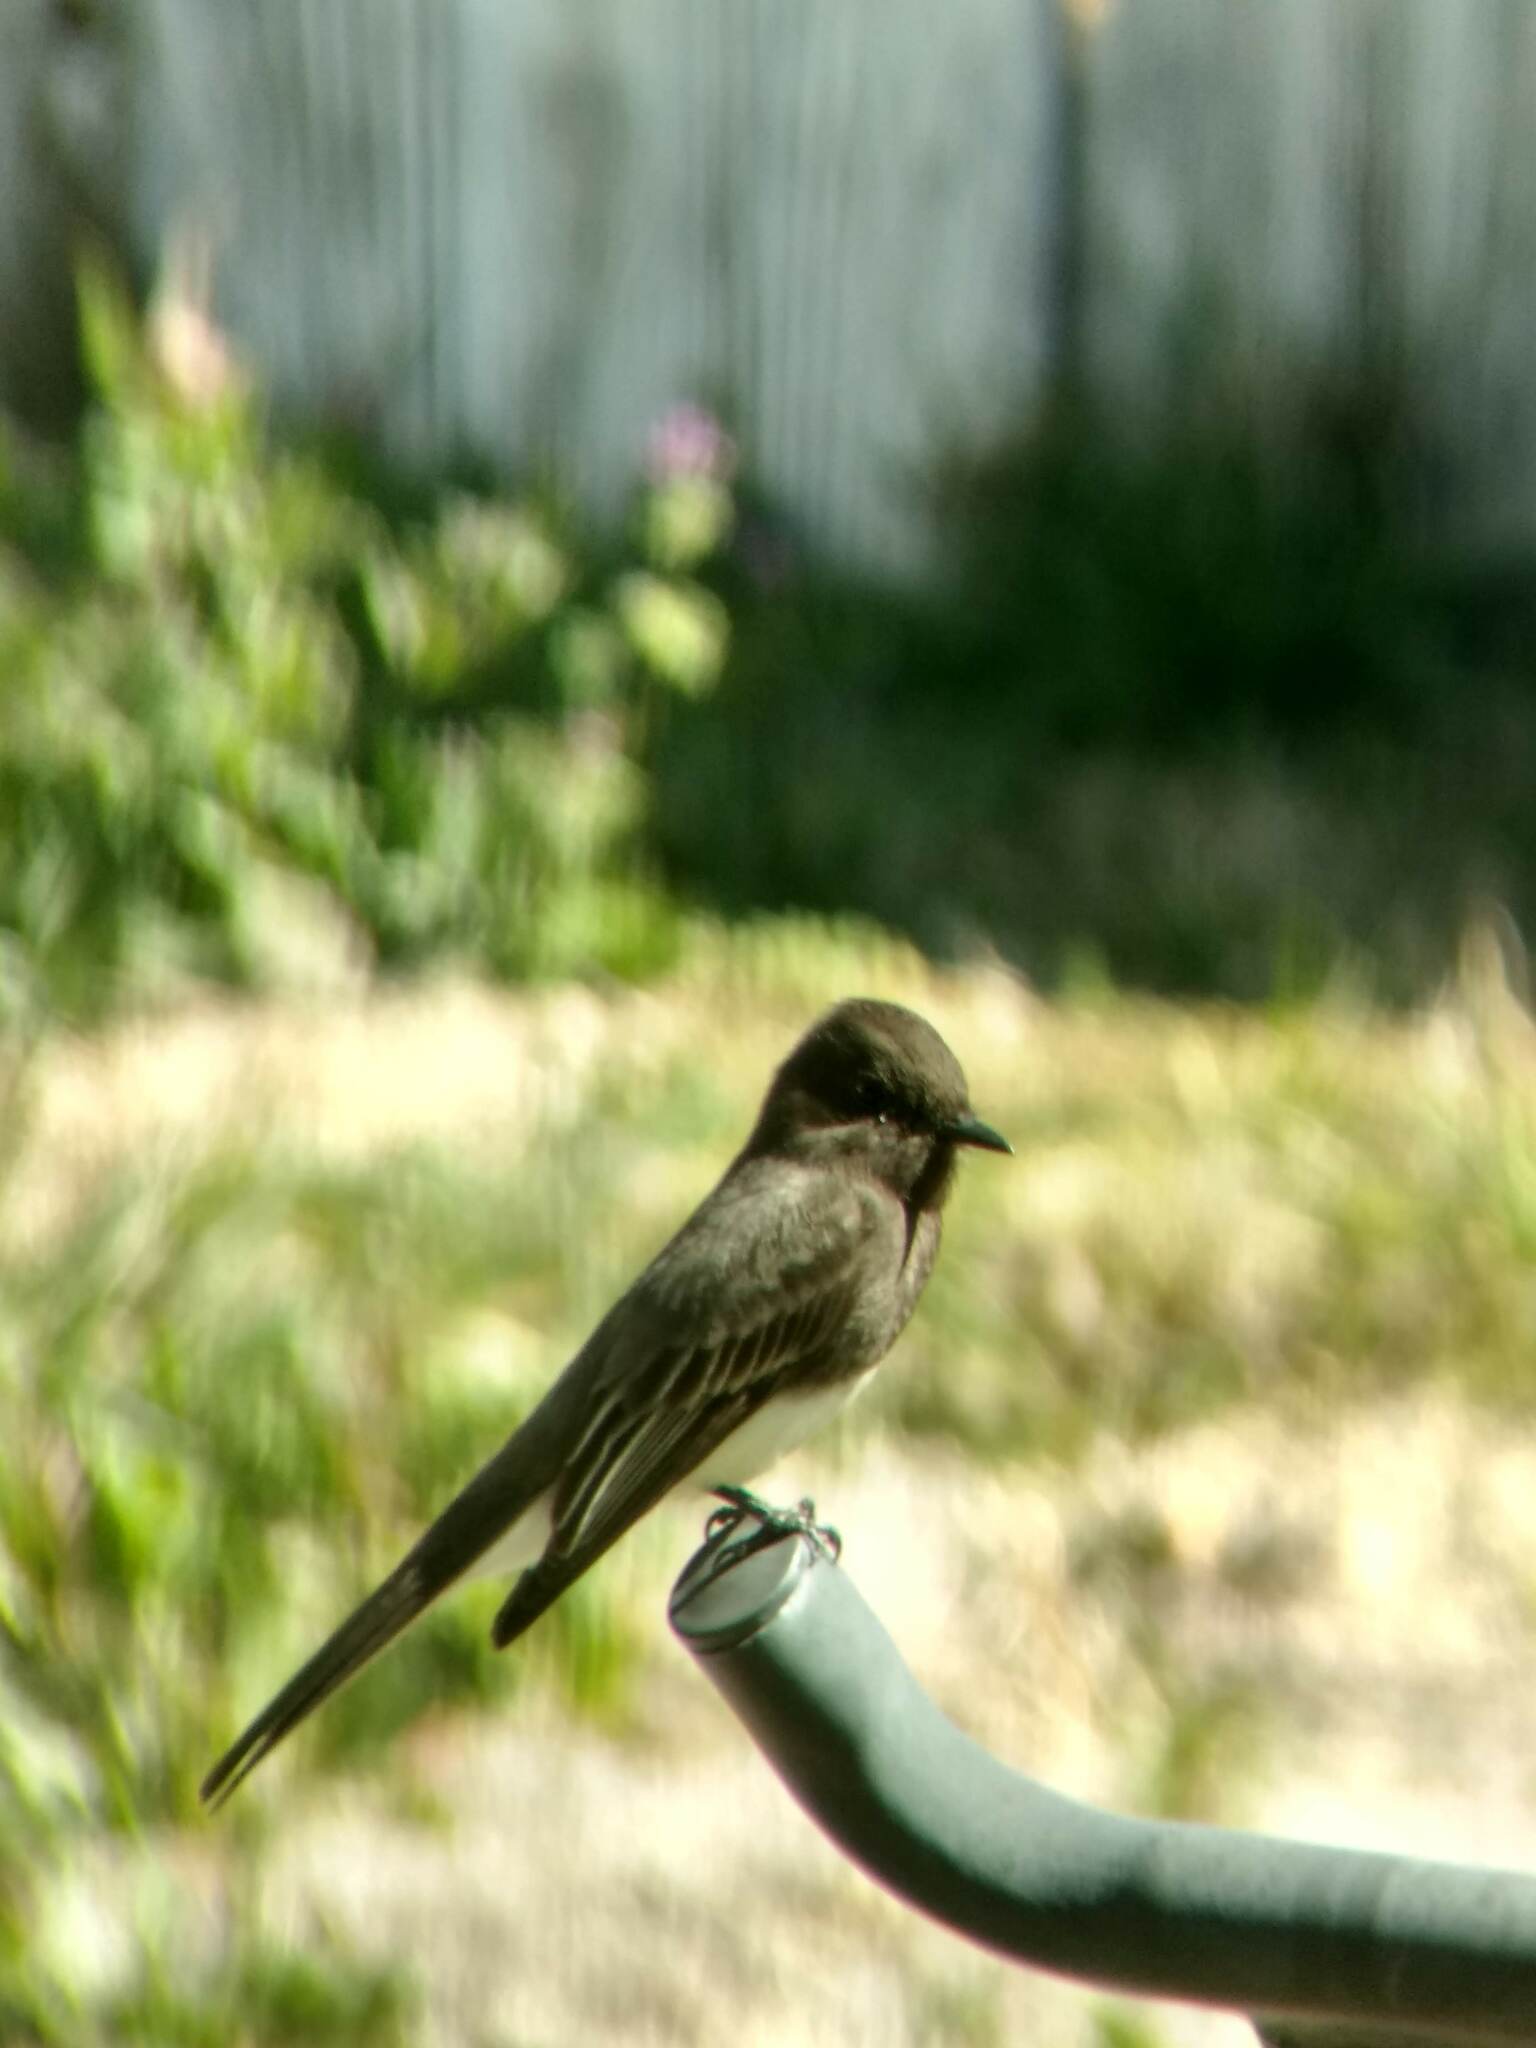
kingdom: Animalia
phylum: Chordata
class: Aves
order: Passeriformes
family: Tyrannidae
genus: Sayornis
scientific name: Sayornis nigricans
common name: Black phoebe
